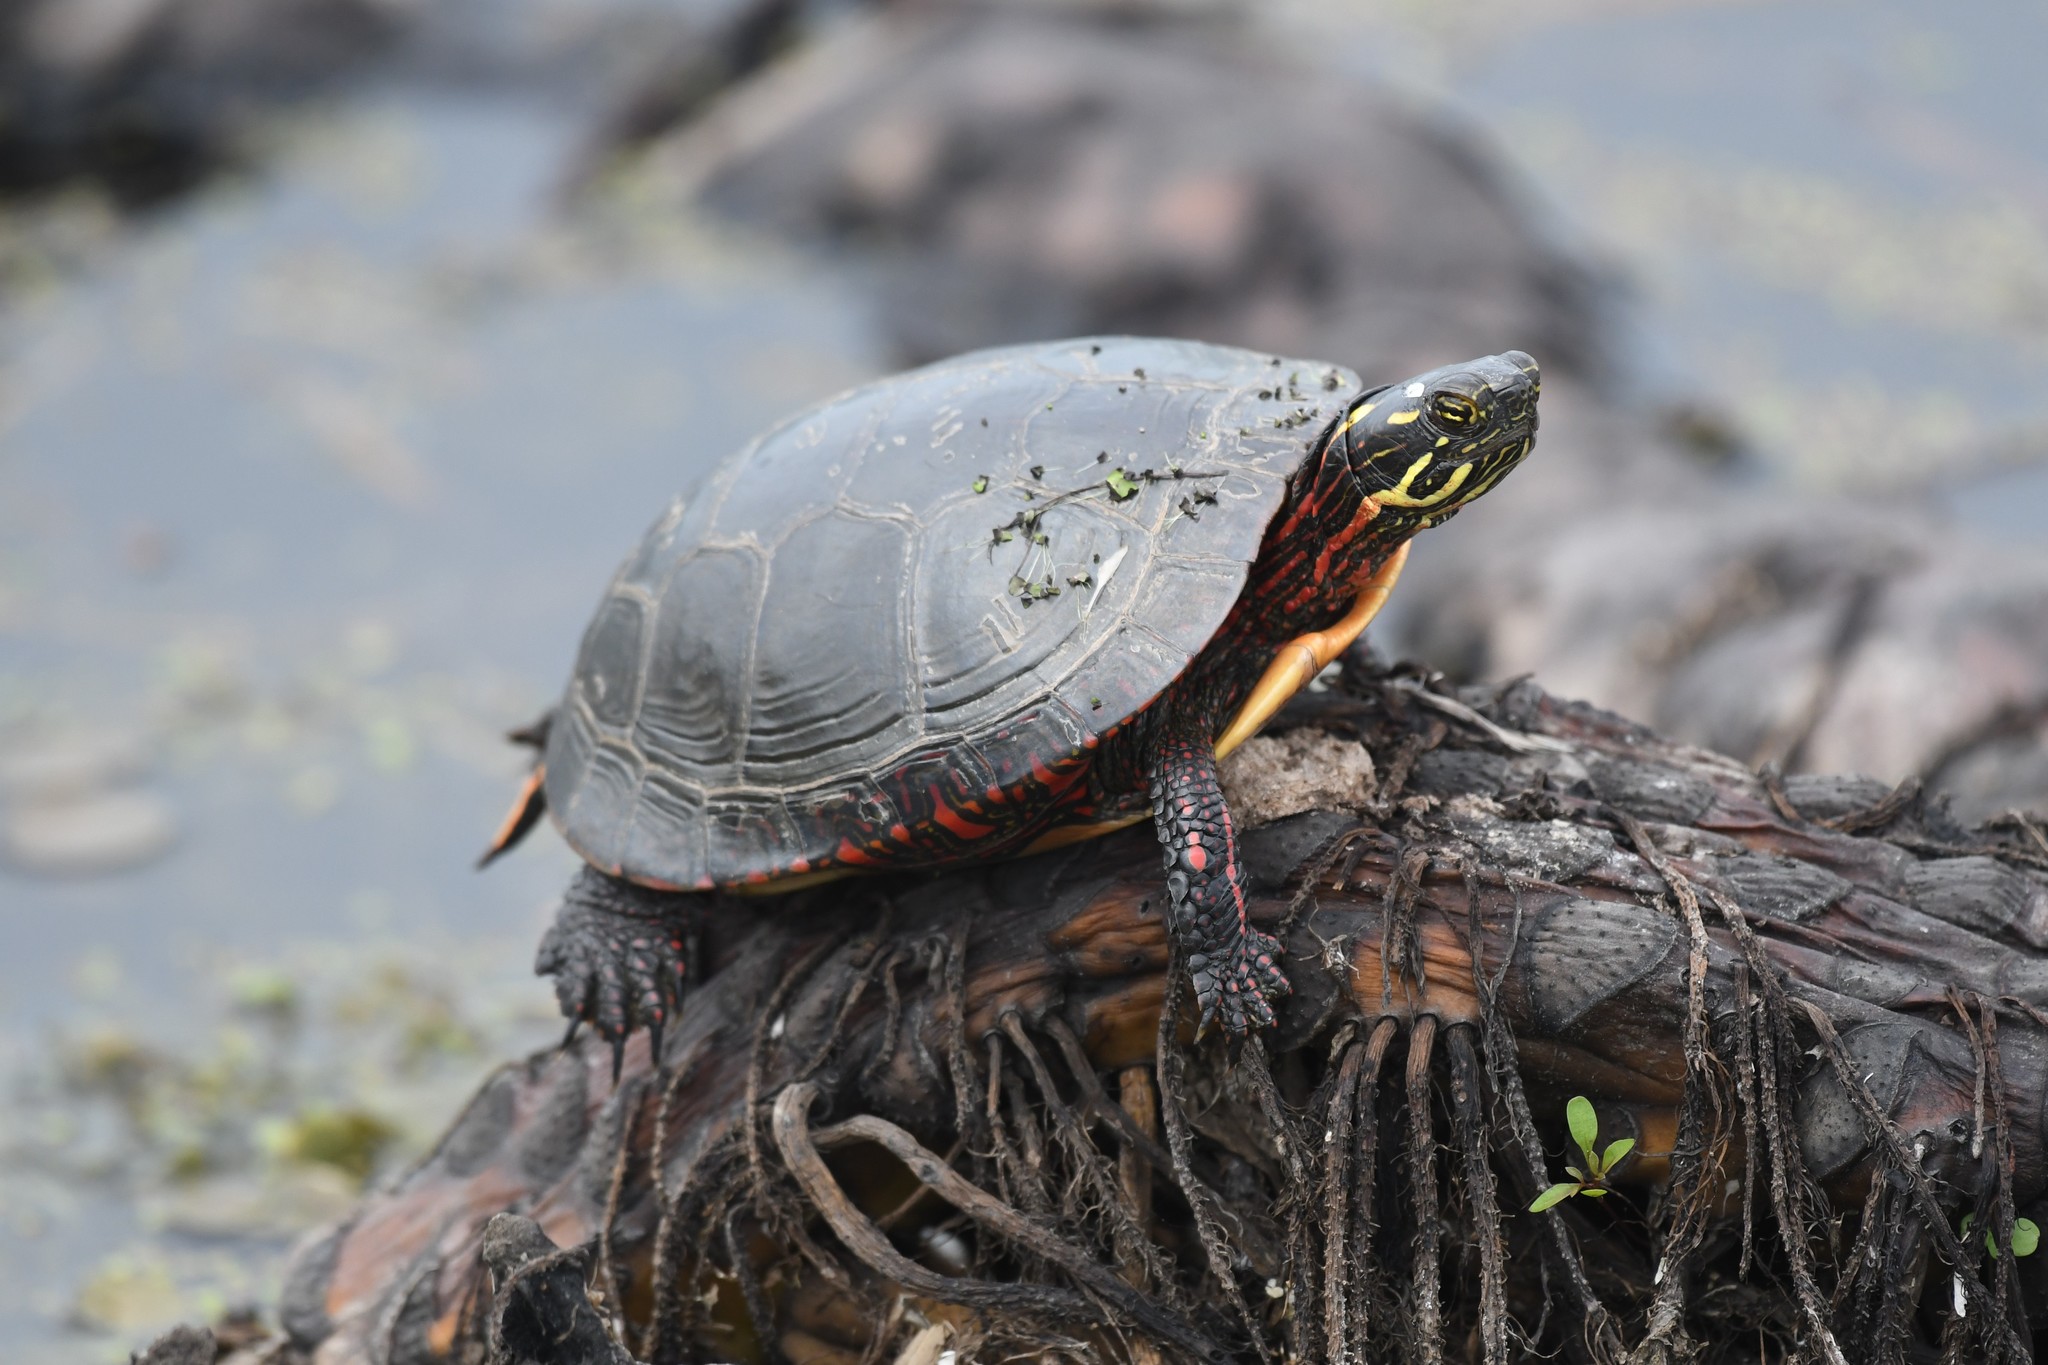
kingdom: Animalia
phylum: Chordata
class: Testudines
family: Emydidae
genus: Chrysemys
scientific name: Chrysemys picta
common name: Painted turtle
